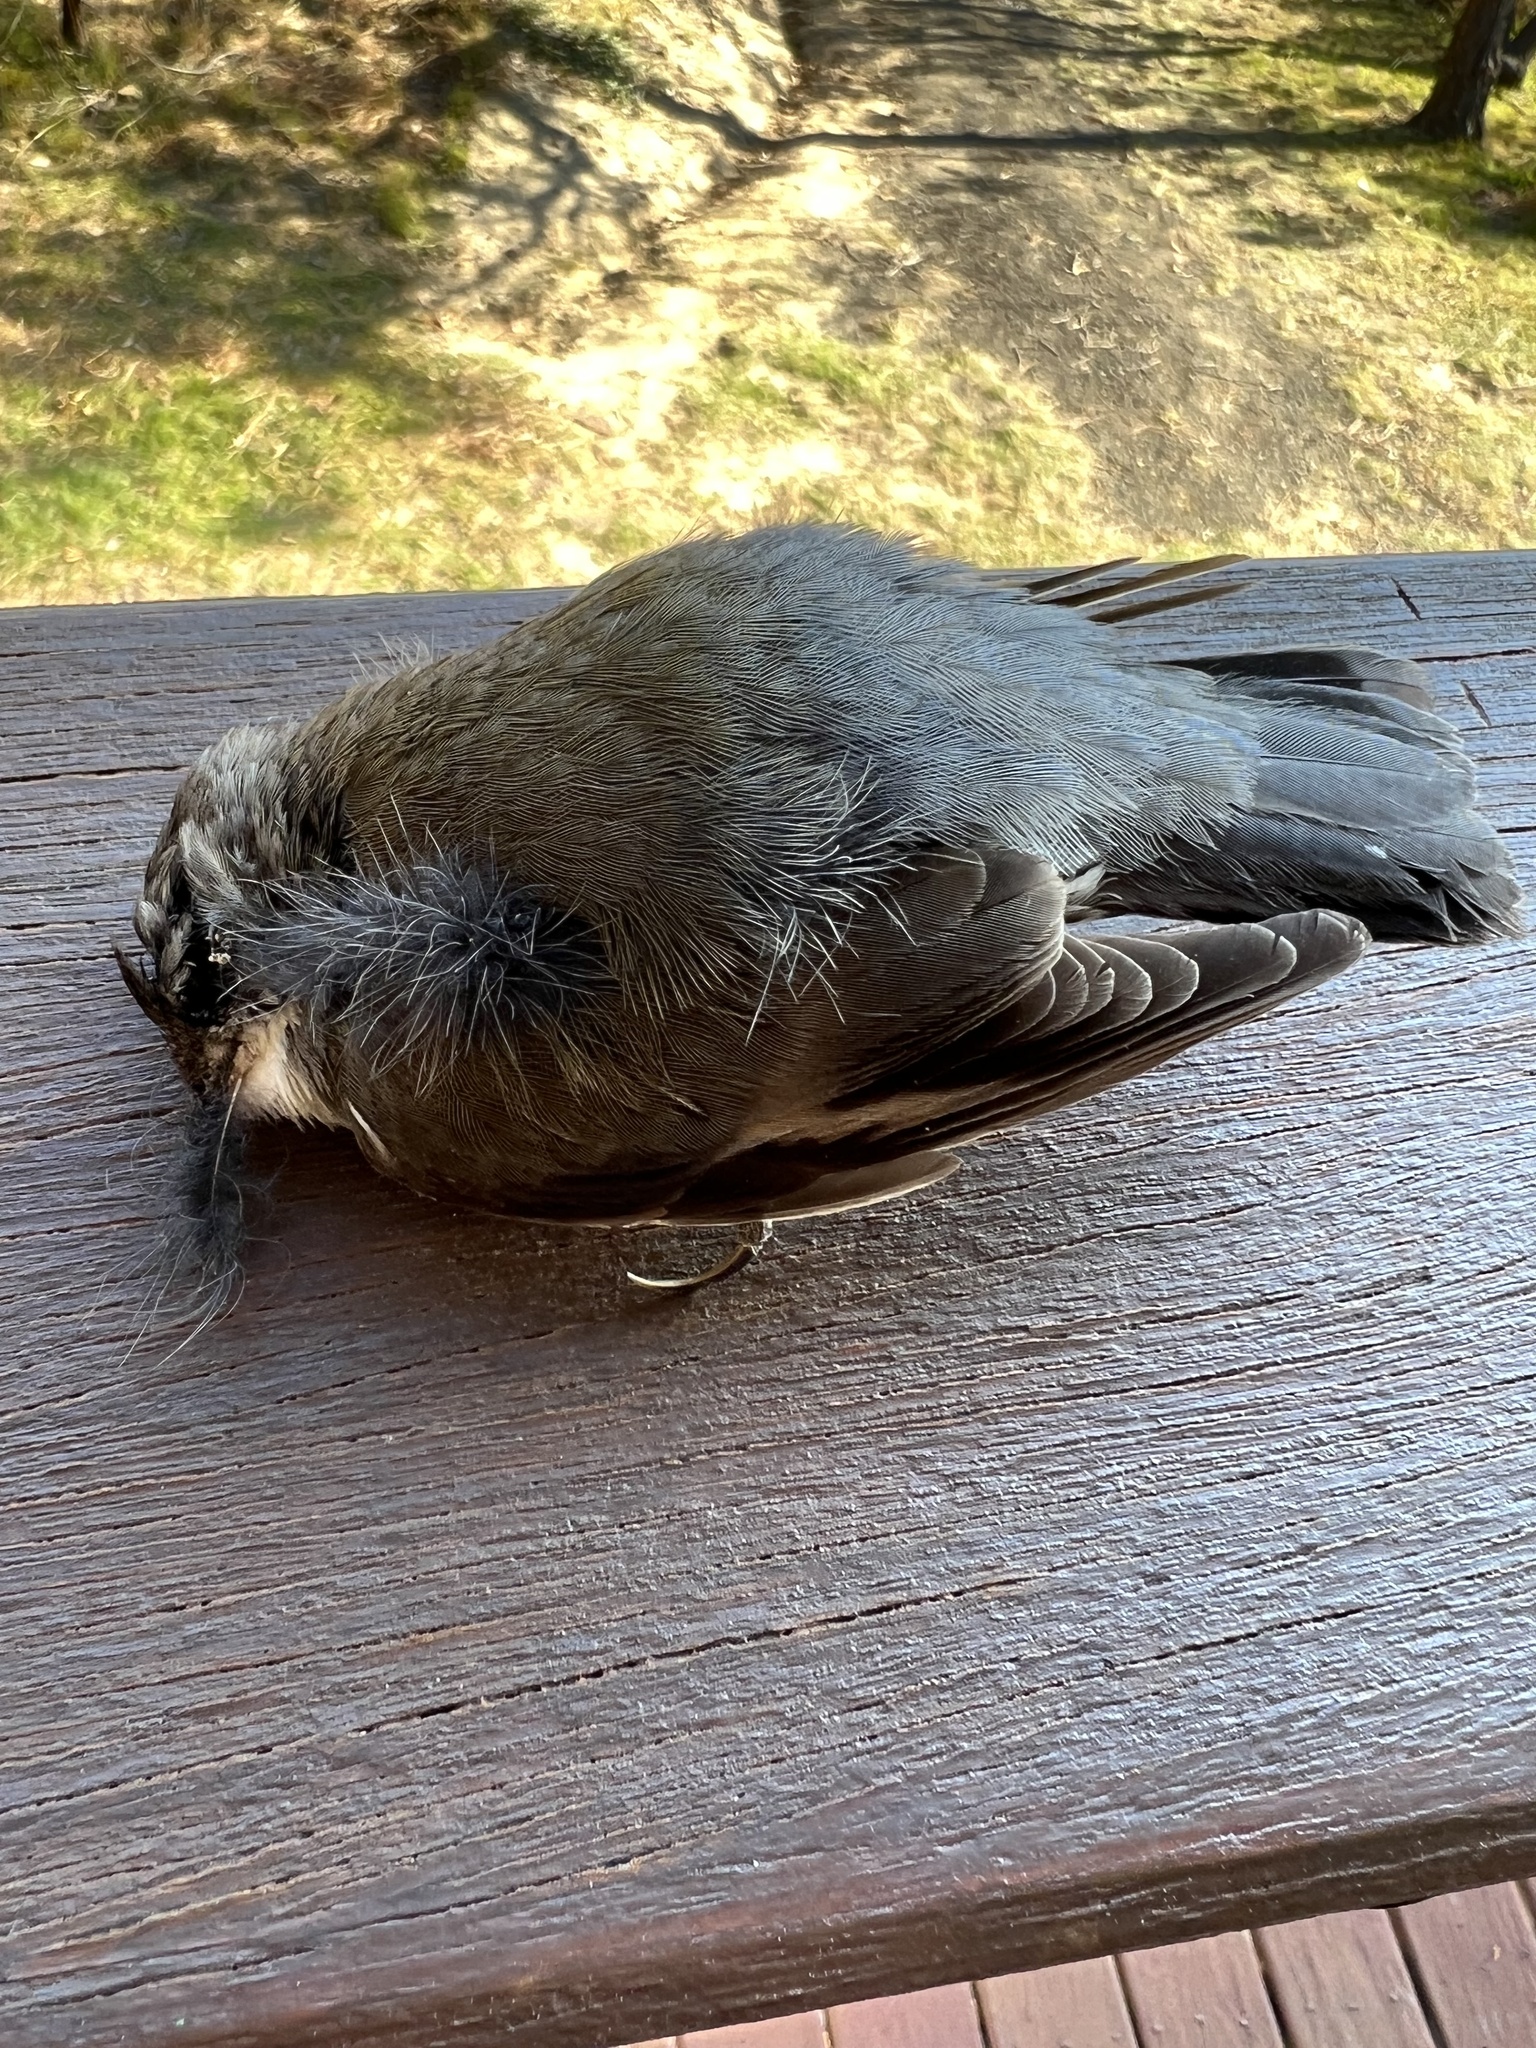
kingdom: Animalia
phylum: Chordata
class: Aves
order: Passeriformes
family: Climacteridae
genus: Cormobates
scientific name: Cormobates leucophaea
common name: White-throated treecreeper
